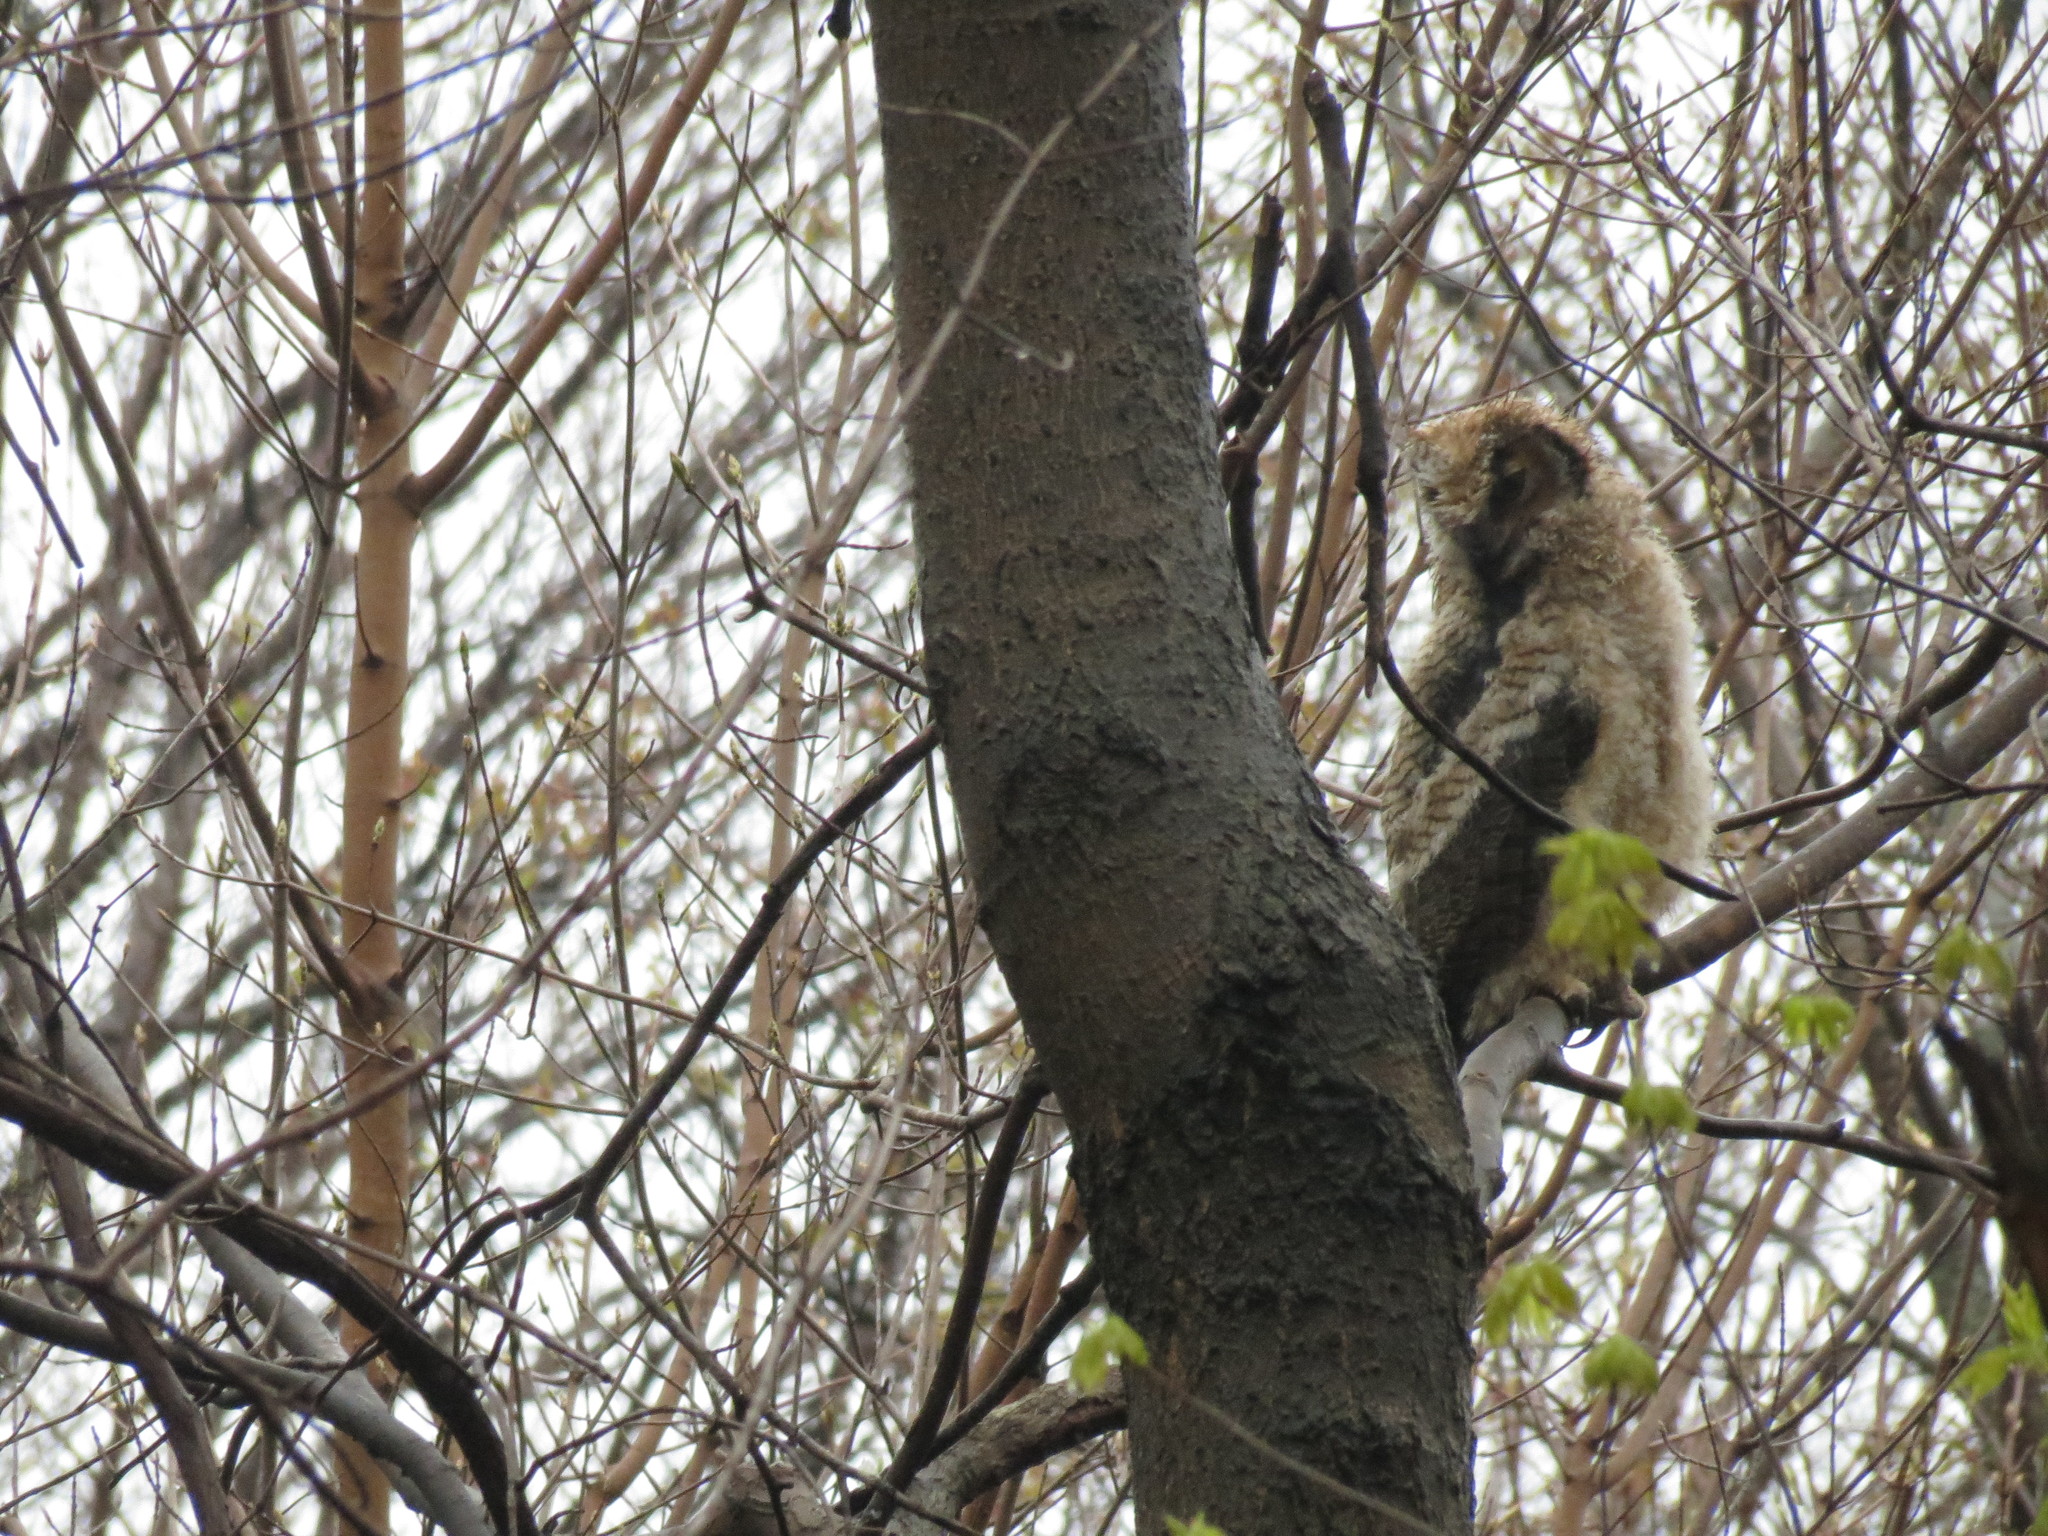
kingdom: Animalia
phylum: Chordata
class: Aves
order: Strigiformes
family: Strigidae
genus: Bubo
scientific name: Bubo virginianus
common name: Great horned owl
